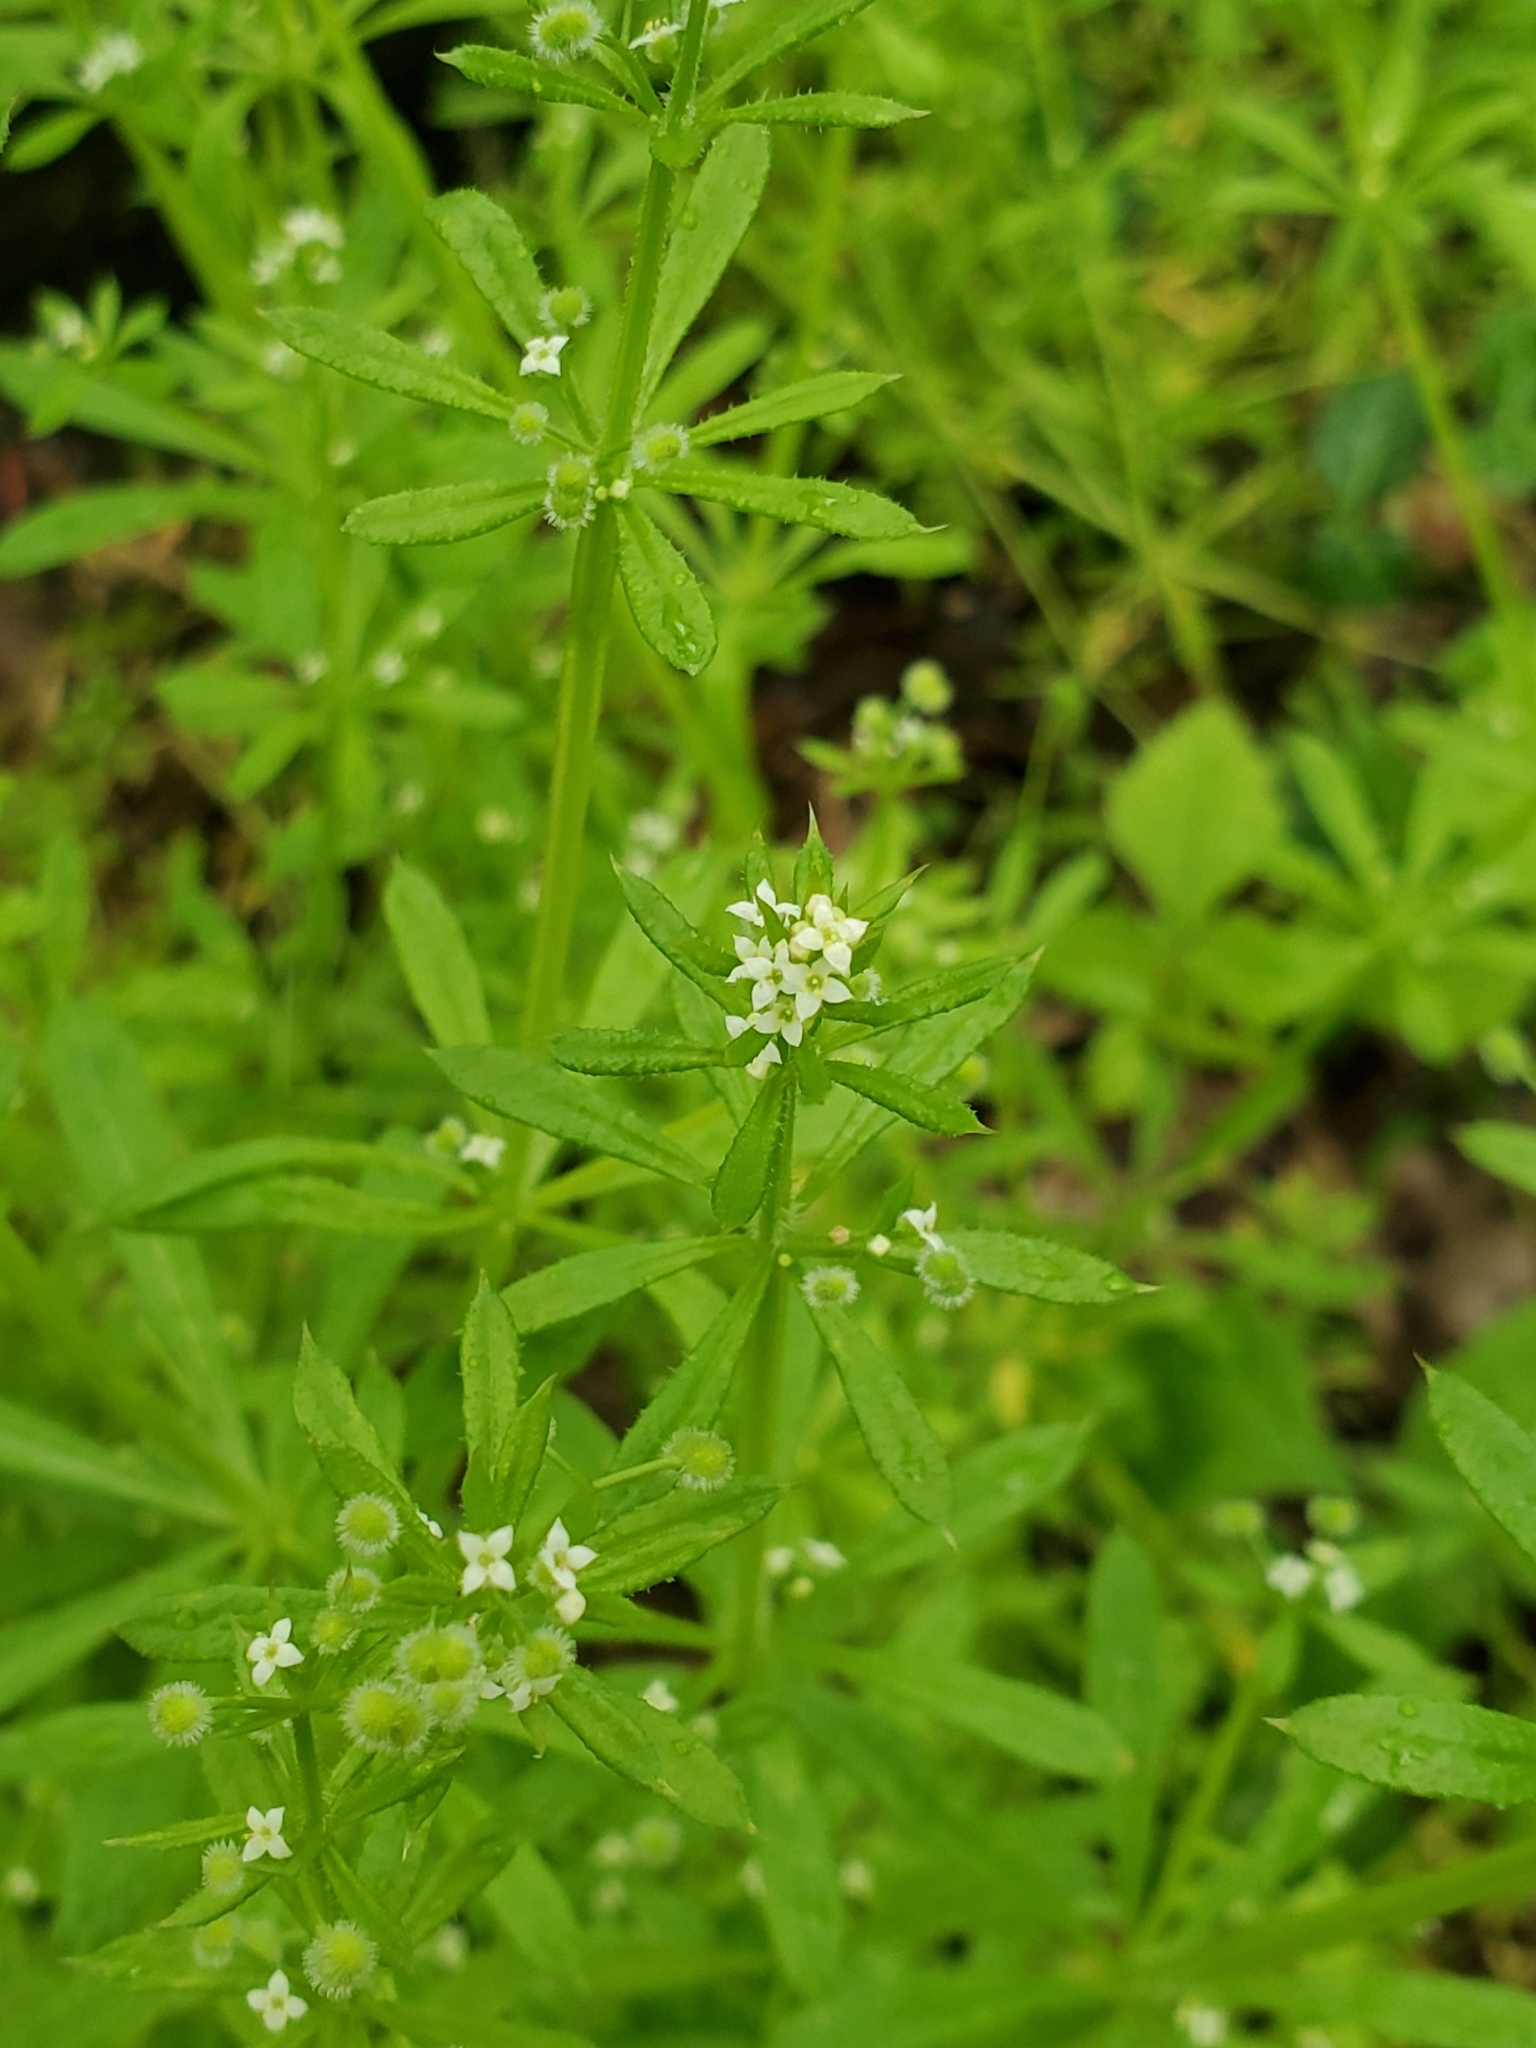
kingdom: Plantae
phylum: Tracheophyta
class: Magnoliopsida
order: Gentianales
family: Rubiaceae
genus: Galium
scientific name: Galium aparine
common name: Cleavers
